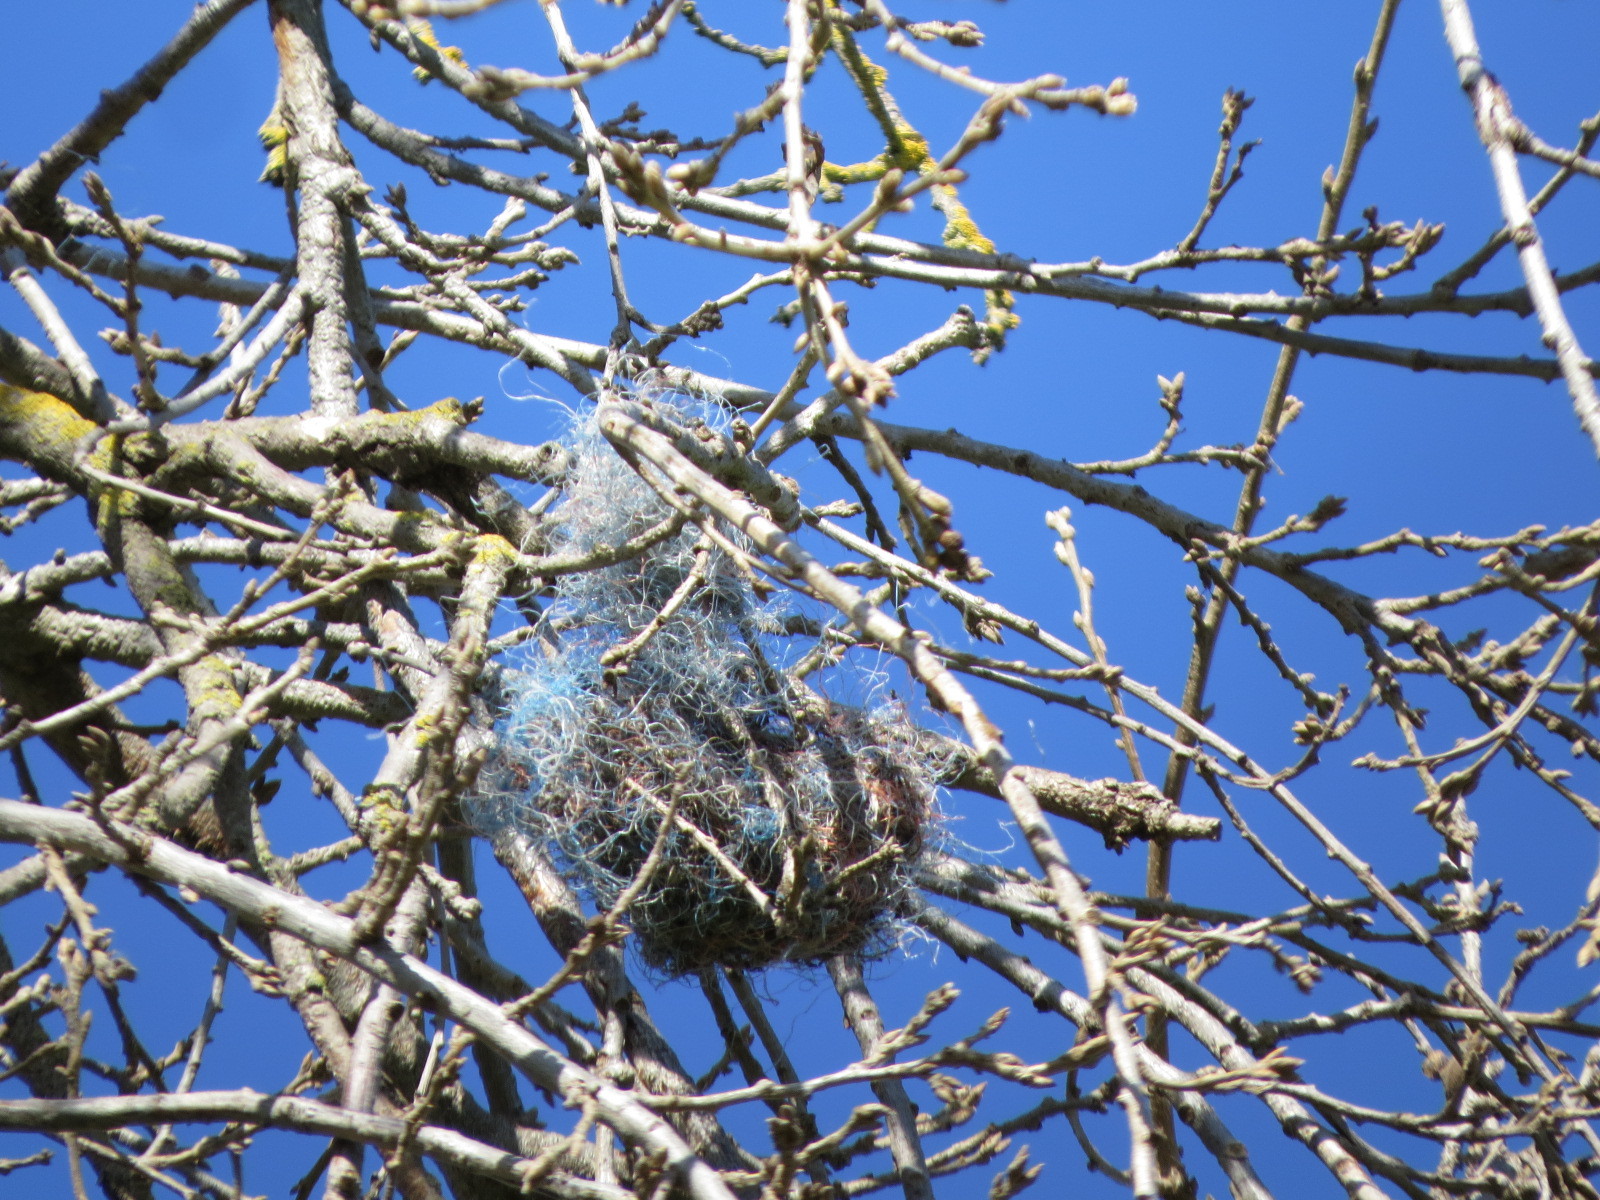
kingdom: Animalia
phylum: Chordata
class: Aves
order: Passeriformes
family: Icteridae
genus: Icterus
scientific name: Icterus bullockii
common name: Bullock's oriole
